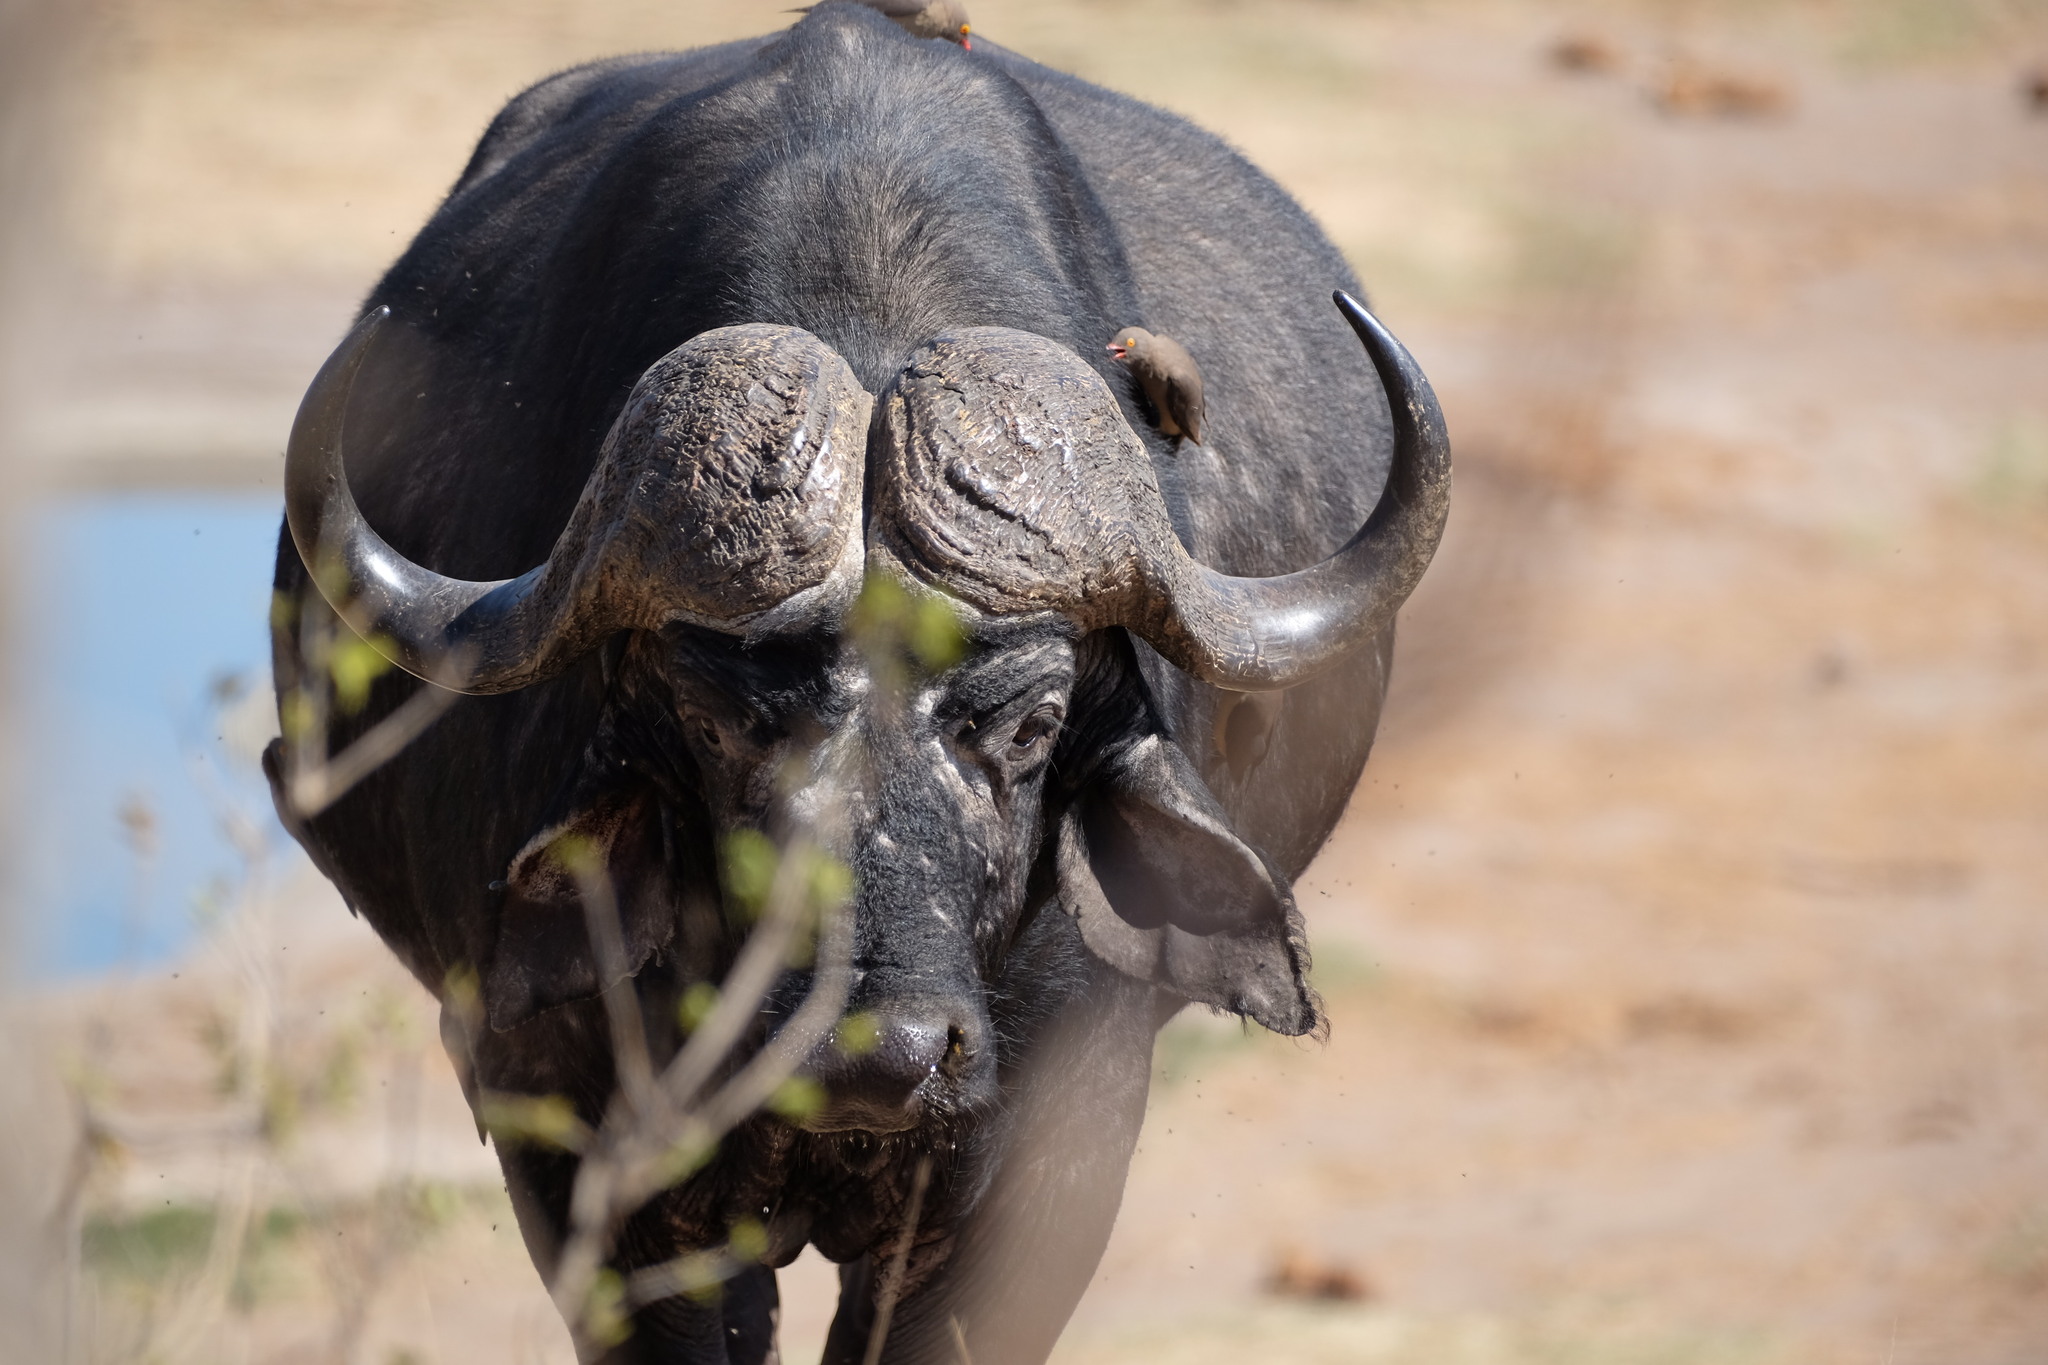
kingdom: Animalia
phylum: Chordata
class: Mammalia
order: Artiodactyla
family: Bovidae
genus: Syncerus
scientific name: Syncerus caffer
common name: African buffalo
